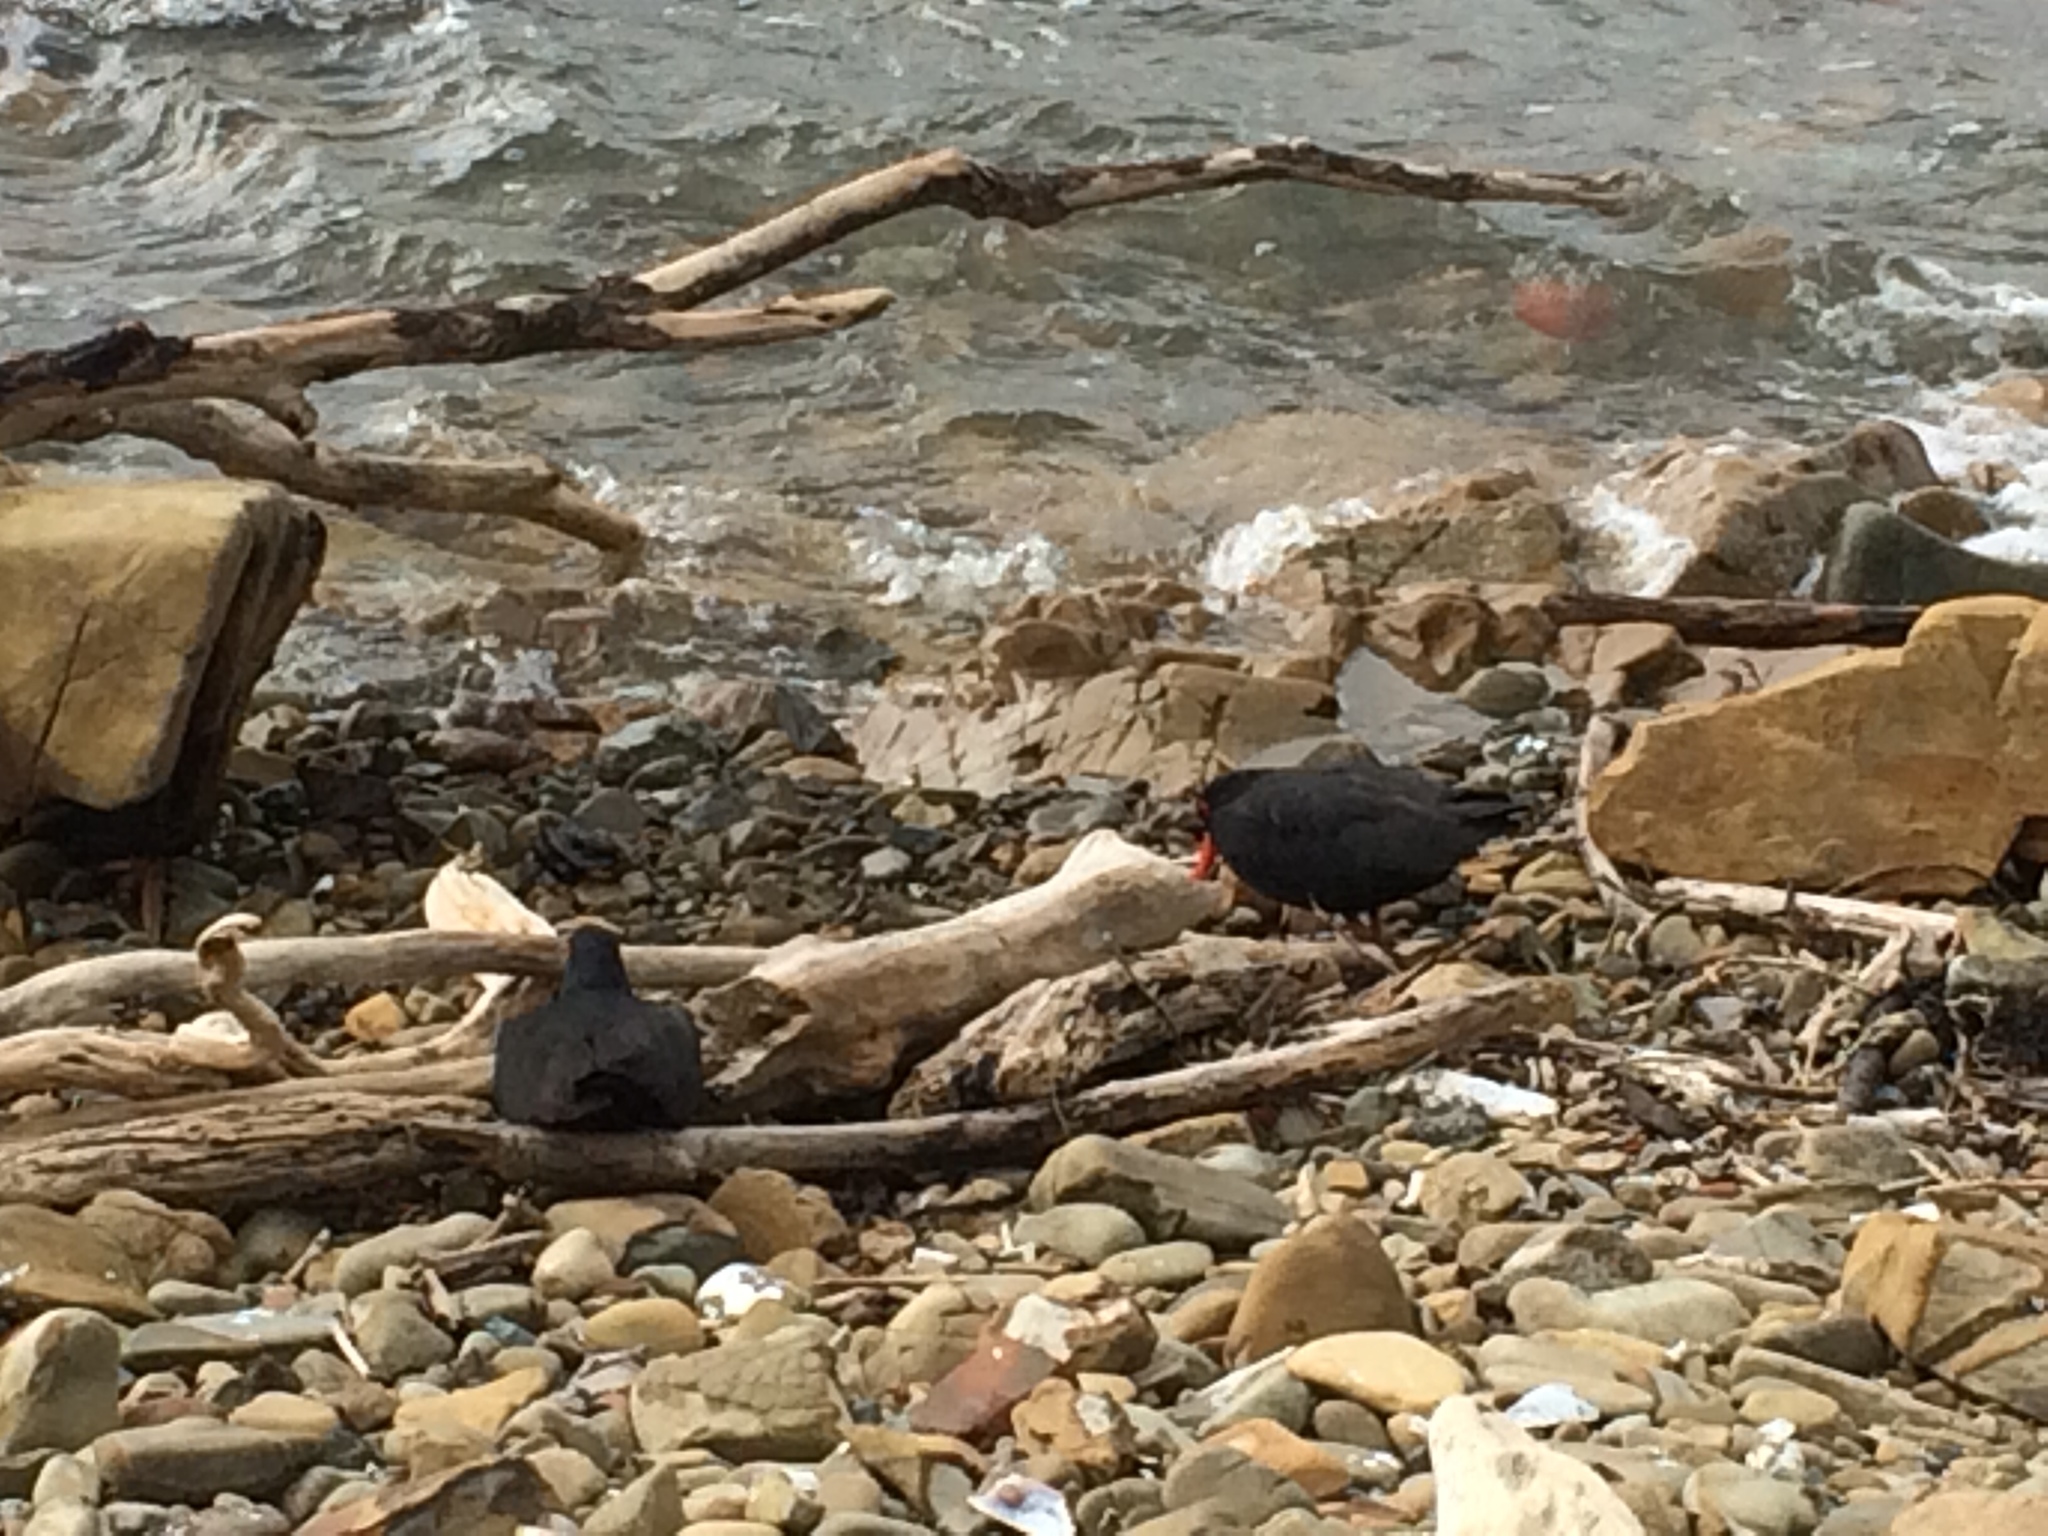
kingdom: Animalia
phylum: Chordata
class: Aves
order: Charadriiformes
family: Haematopodidae
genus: Haematopus
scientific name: Haematopus unicolor
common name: Variable oystercatcher
